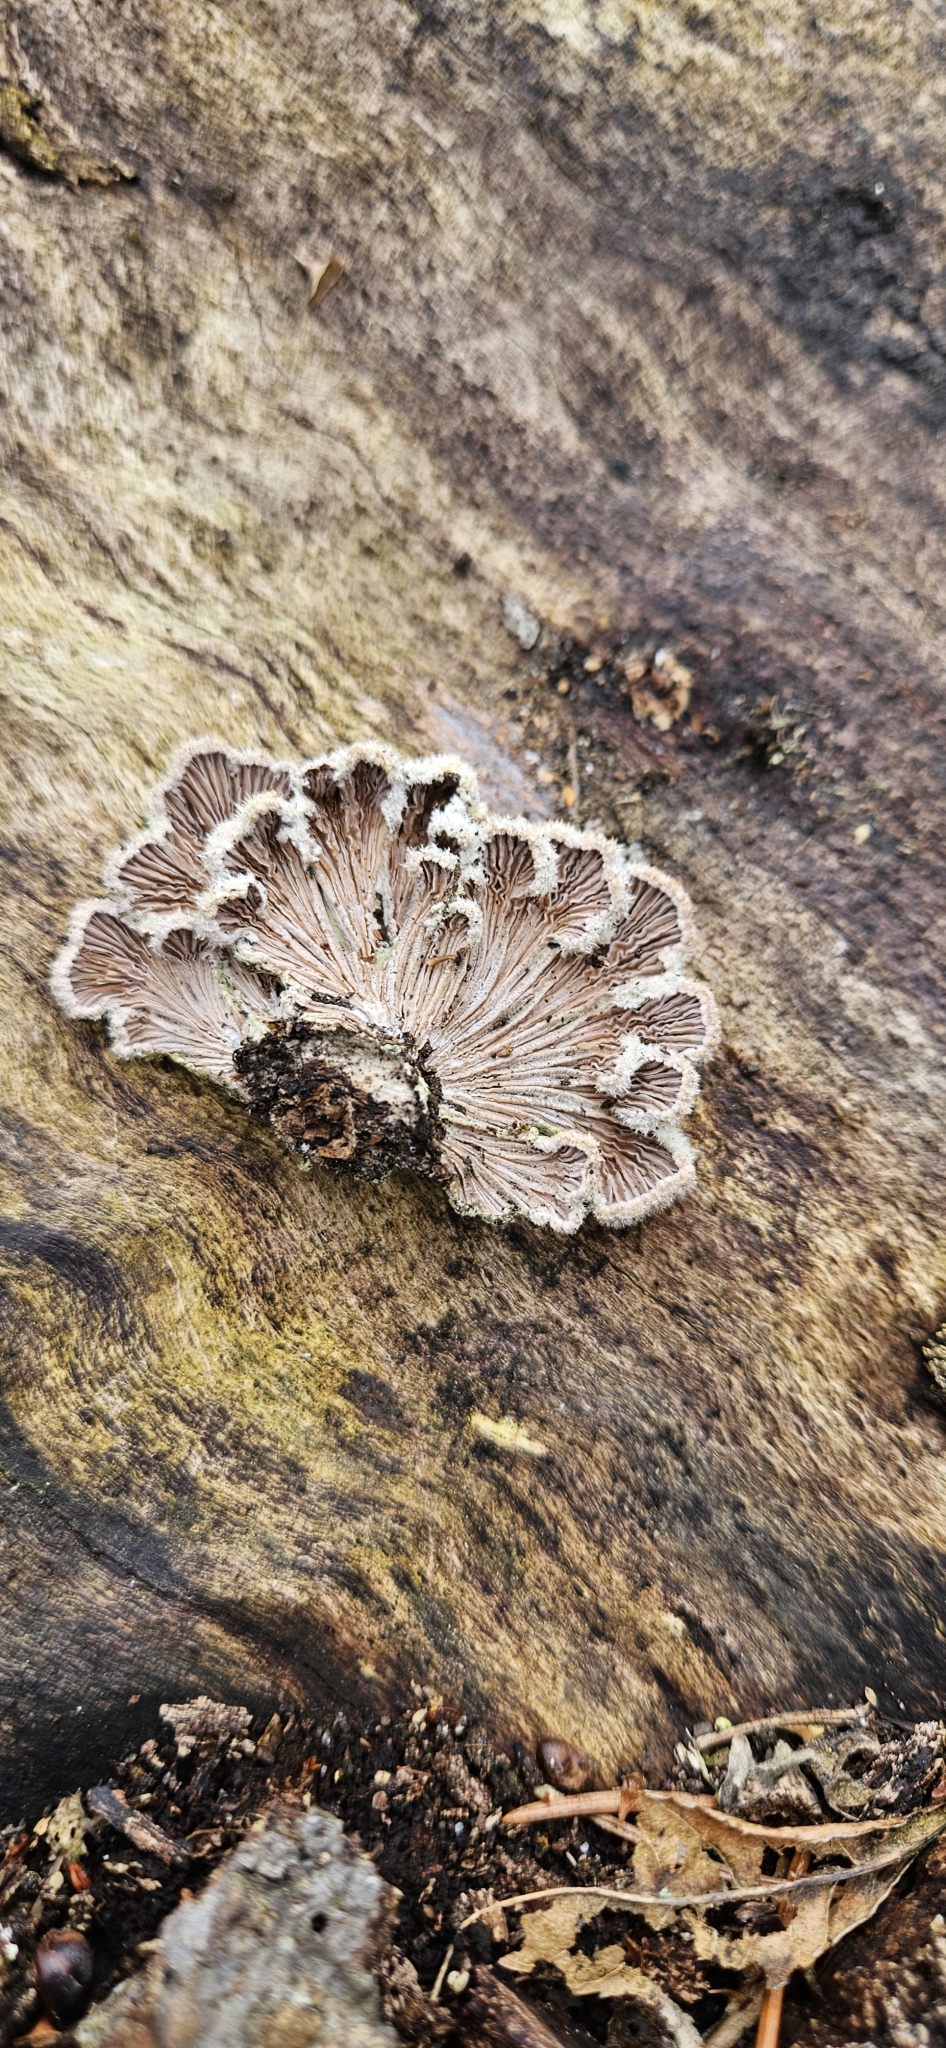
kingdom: Fungi
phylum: Basidiomycota
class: Agaricomycetes
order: Agaricales
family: Schizophyllaceae
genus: Schizophyllum
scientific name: Schizophyllum commune
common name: Common porecrust
